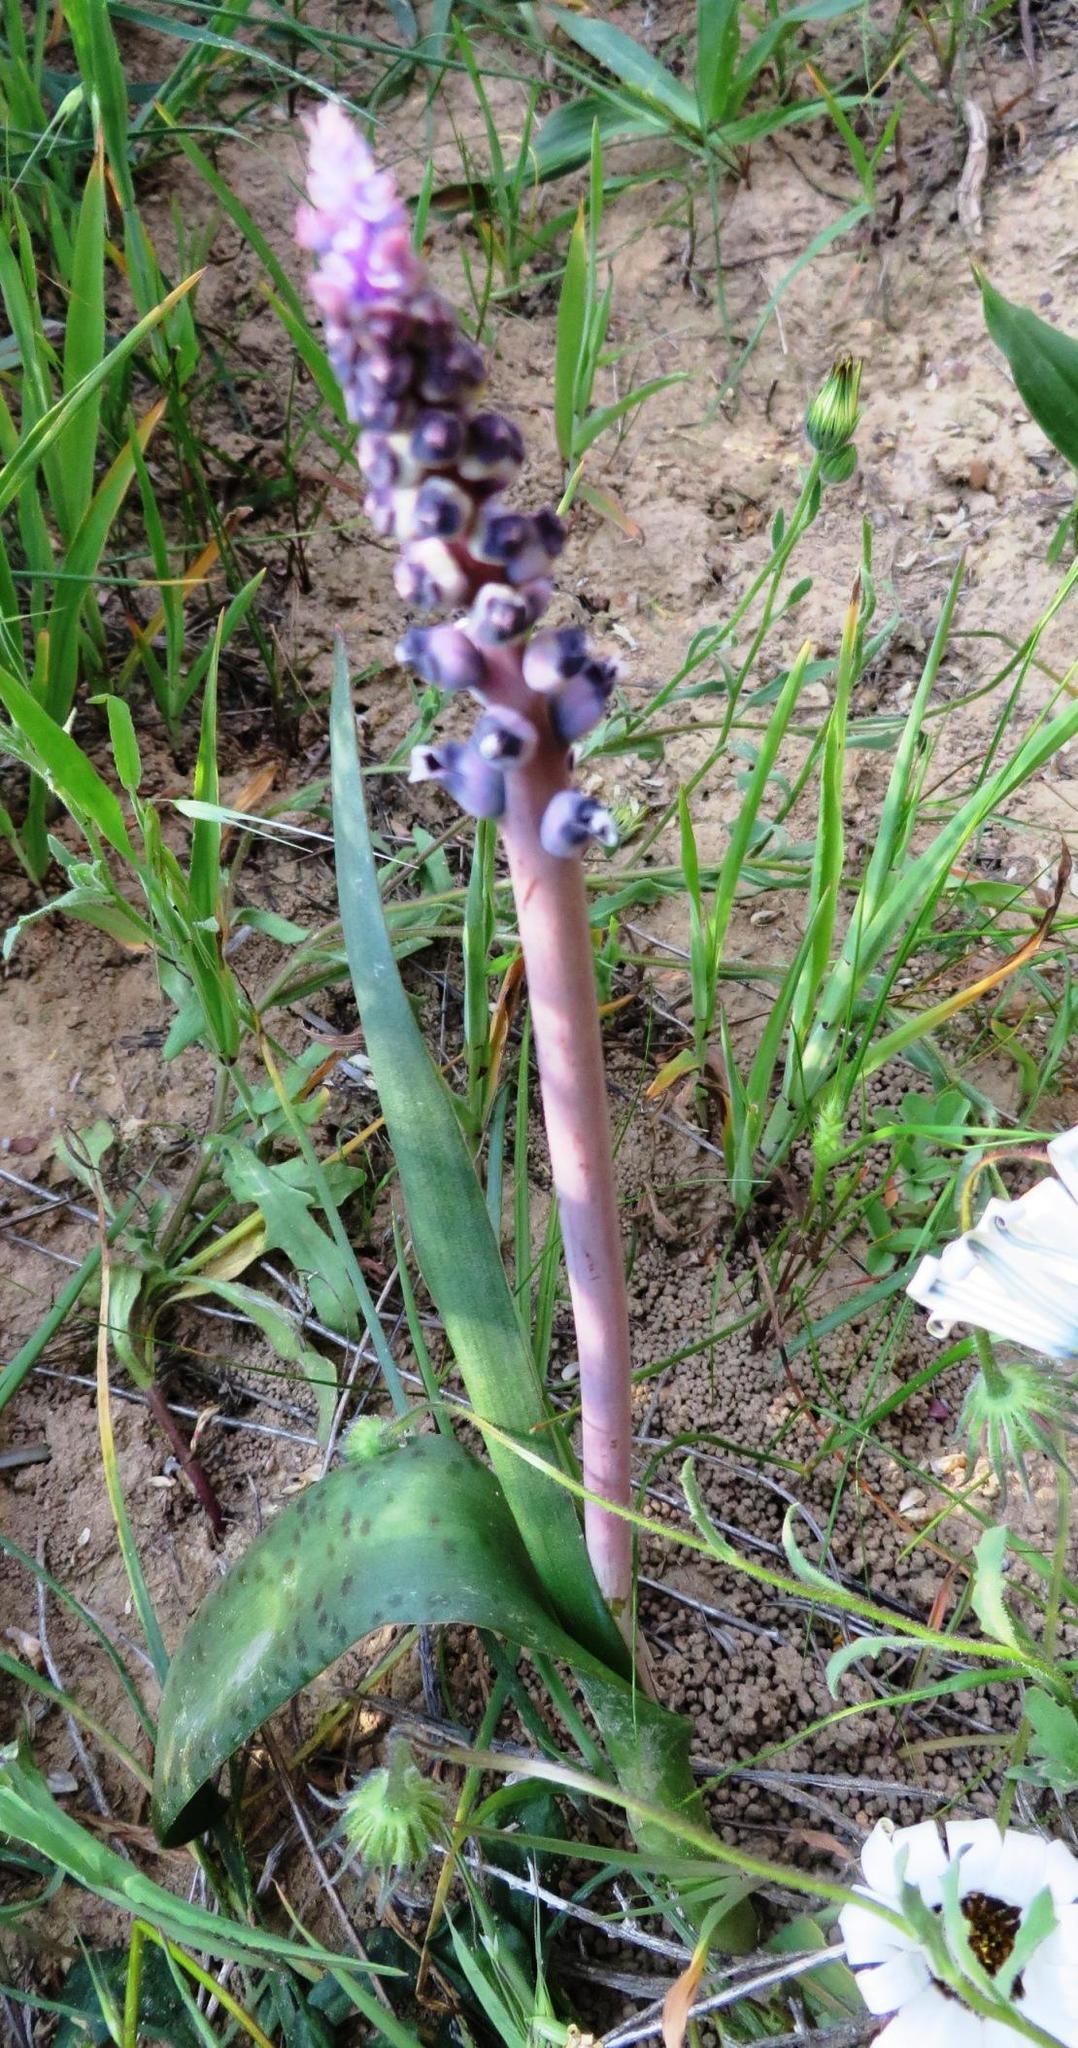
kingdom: Plantae
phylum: Tracheophyta
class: Liliopsida
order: Asparagales
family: Asparagaceae
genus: Lachenalia
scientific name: Lachenalia suaveolens
